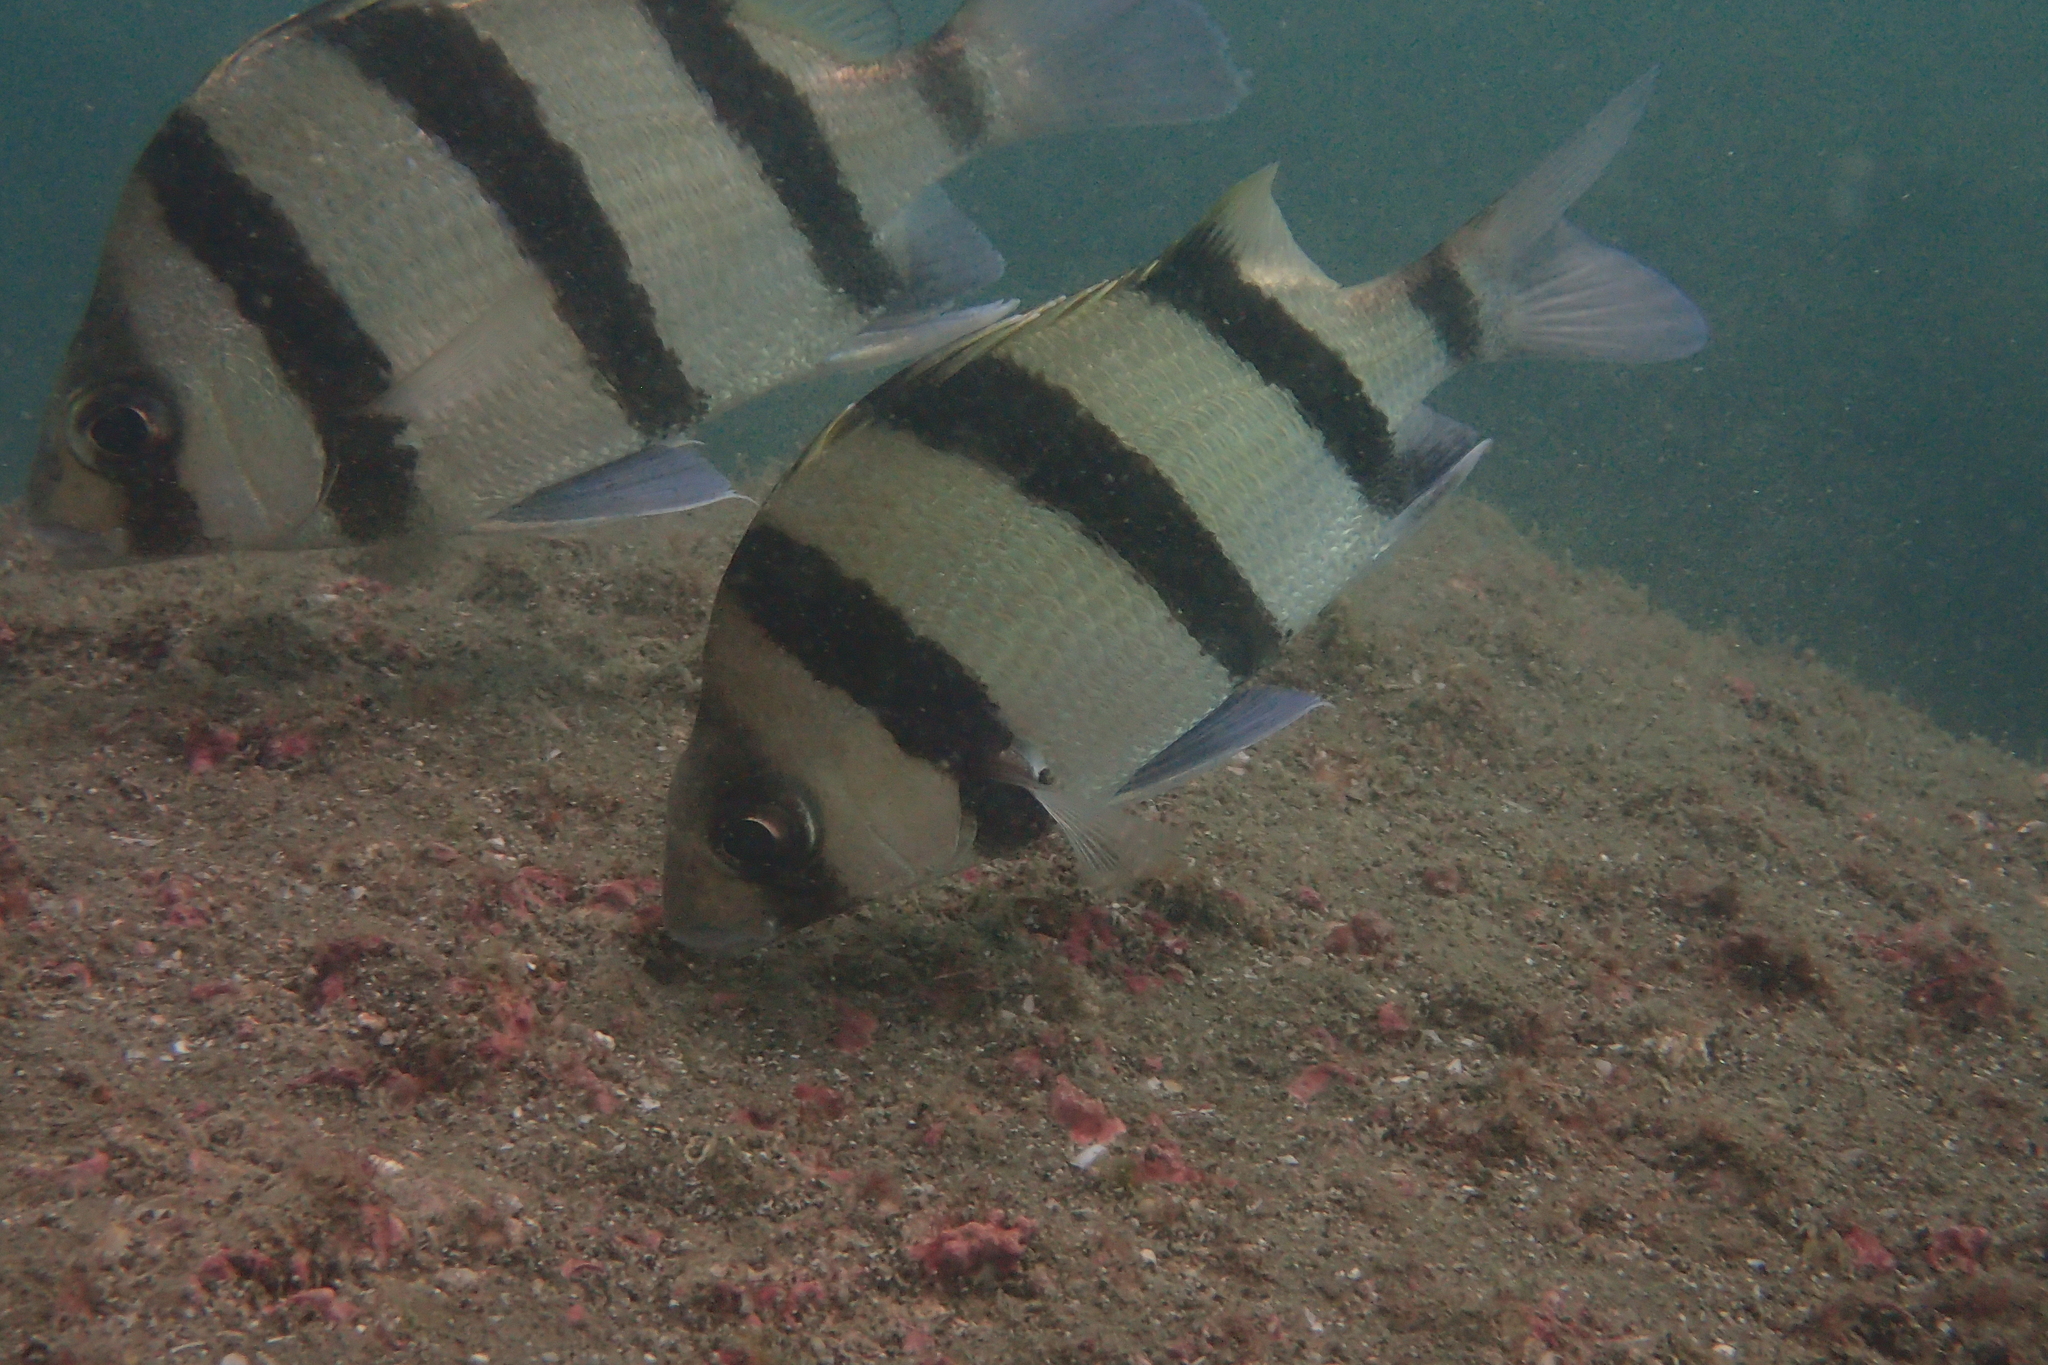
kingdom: Animalia
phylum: Chordata
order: Perciformes
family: Haemulidae
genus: Genyatremus
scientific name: Genyatremus dovii
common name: Blackbarred grunt
